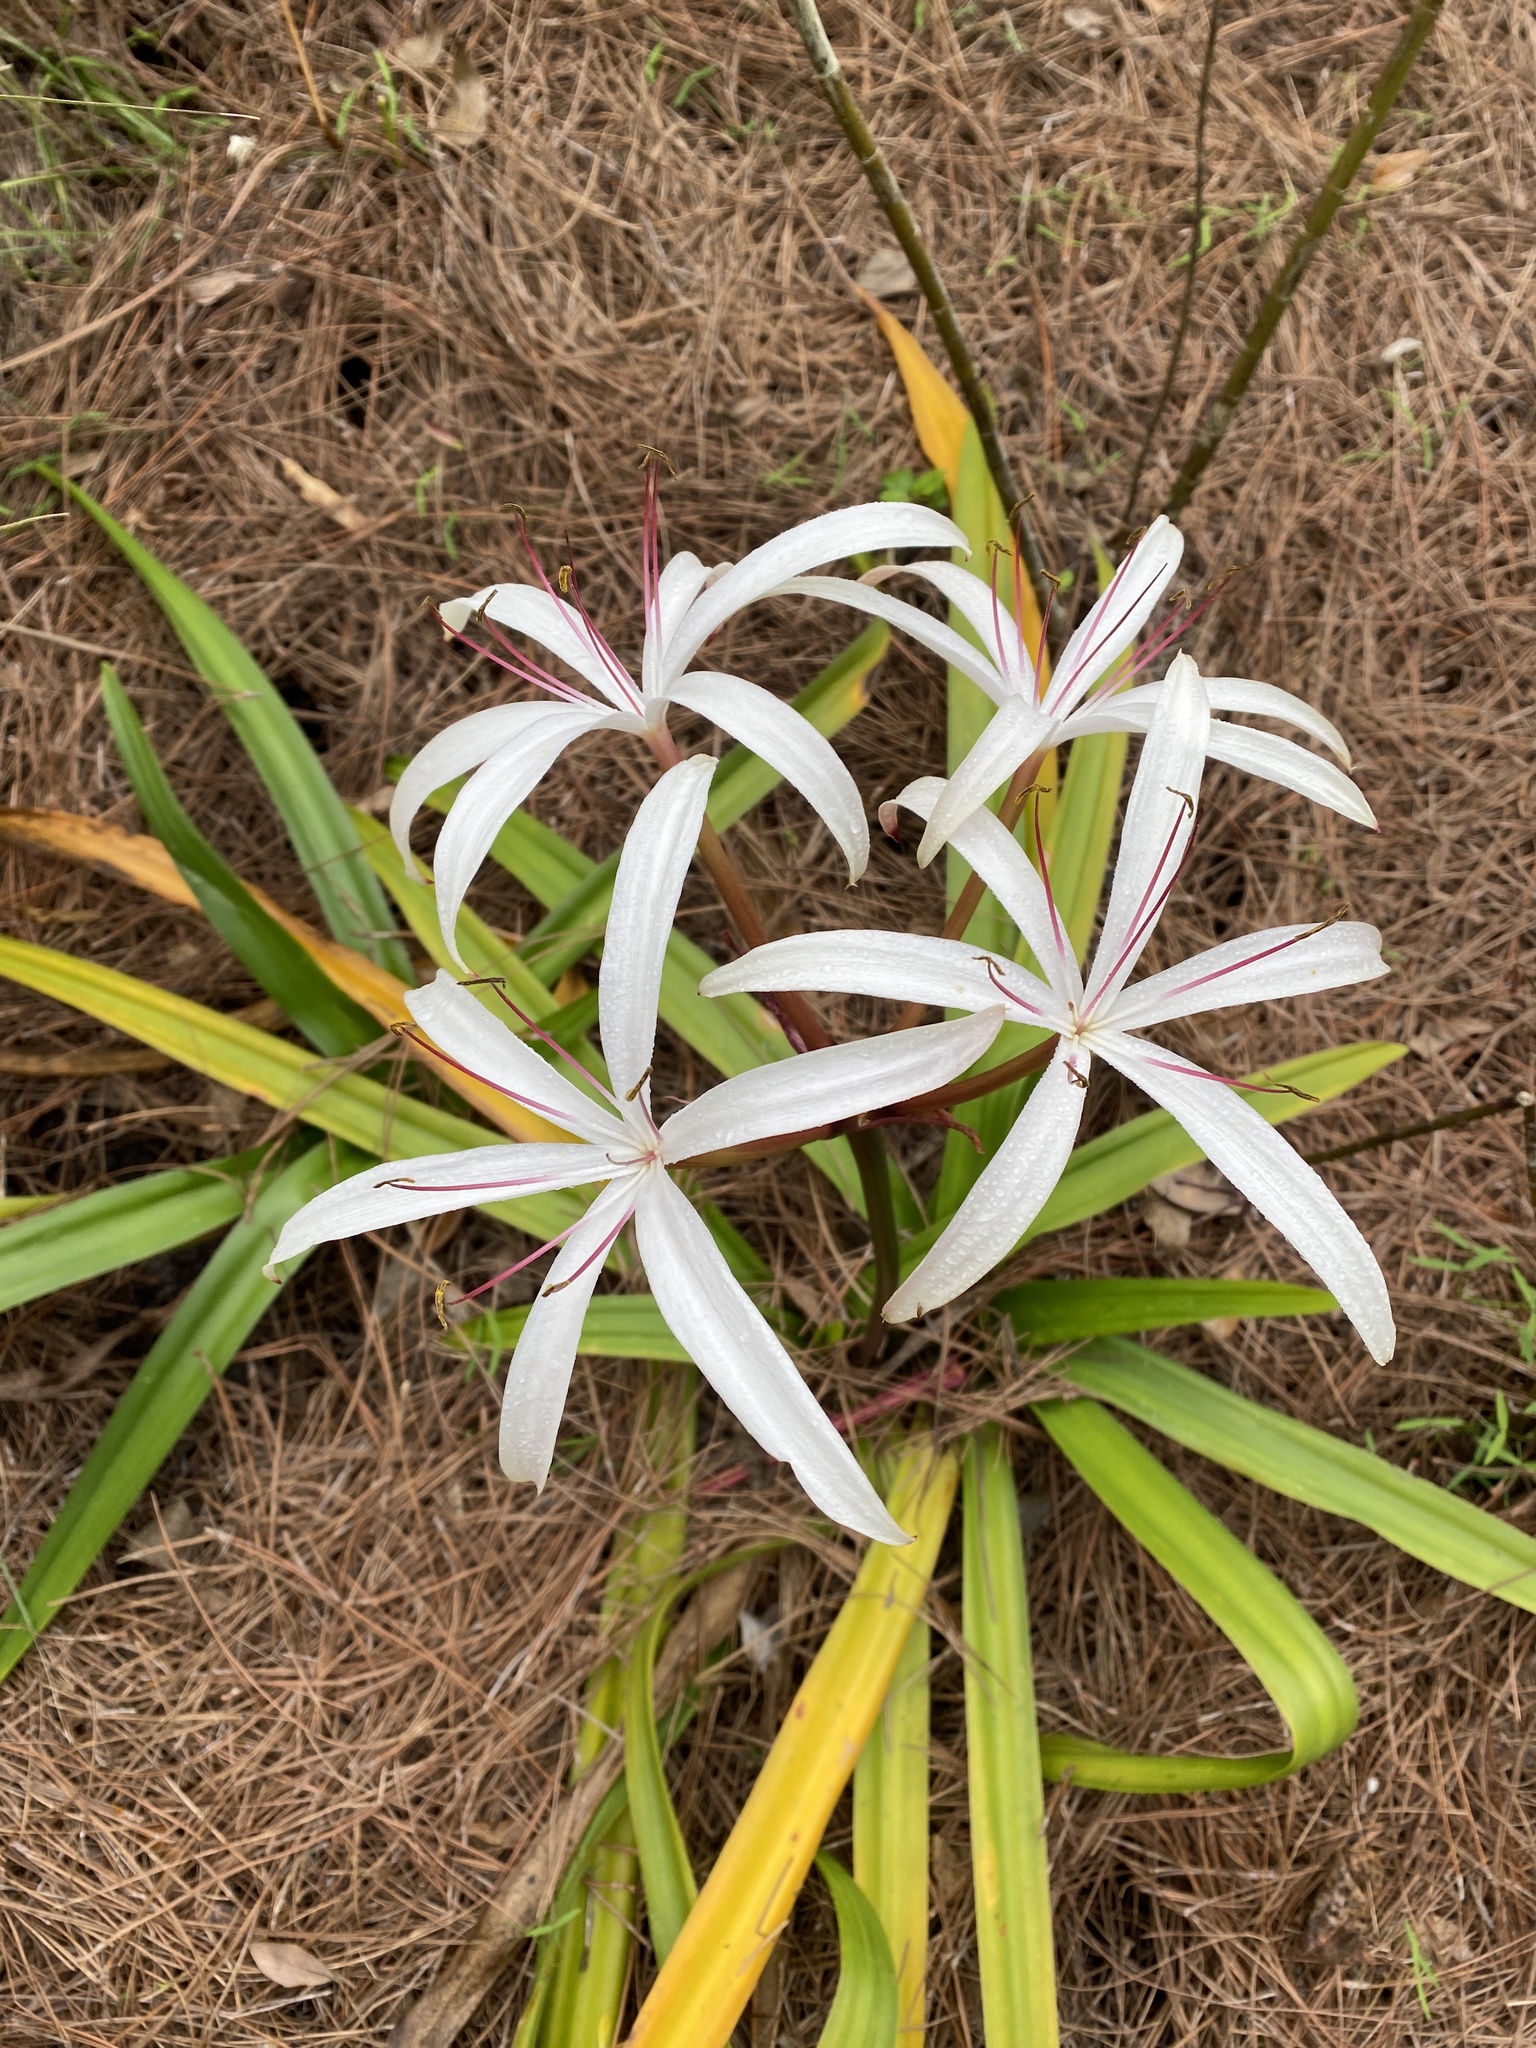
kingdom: Plantae
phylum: Tracheophyta
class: Liliopsida
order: Asparagales
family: Amaryllidaceae
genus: Crinum
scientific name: Crinum americanum
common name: Florida swamp-lily
